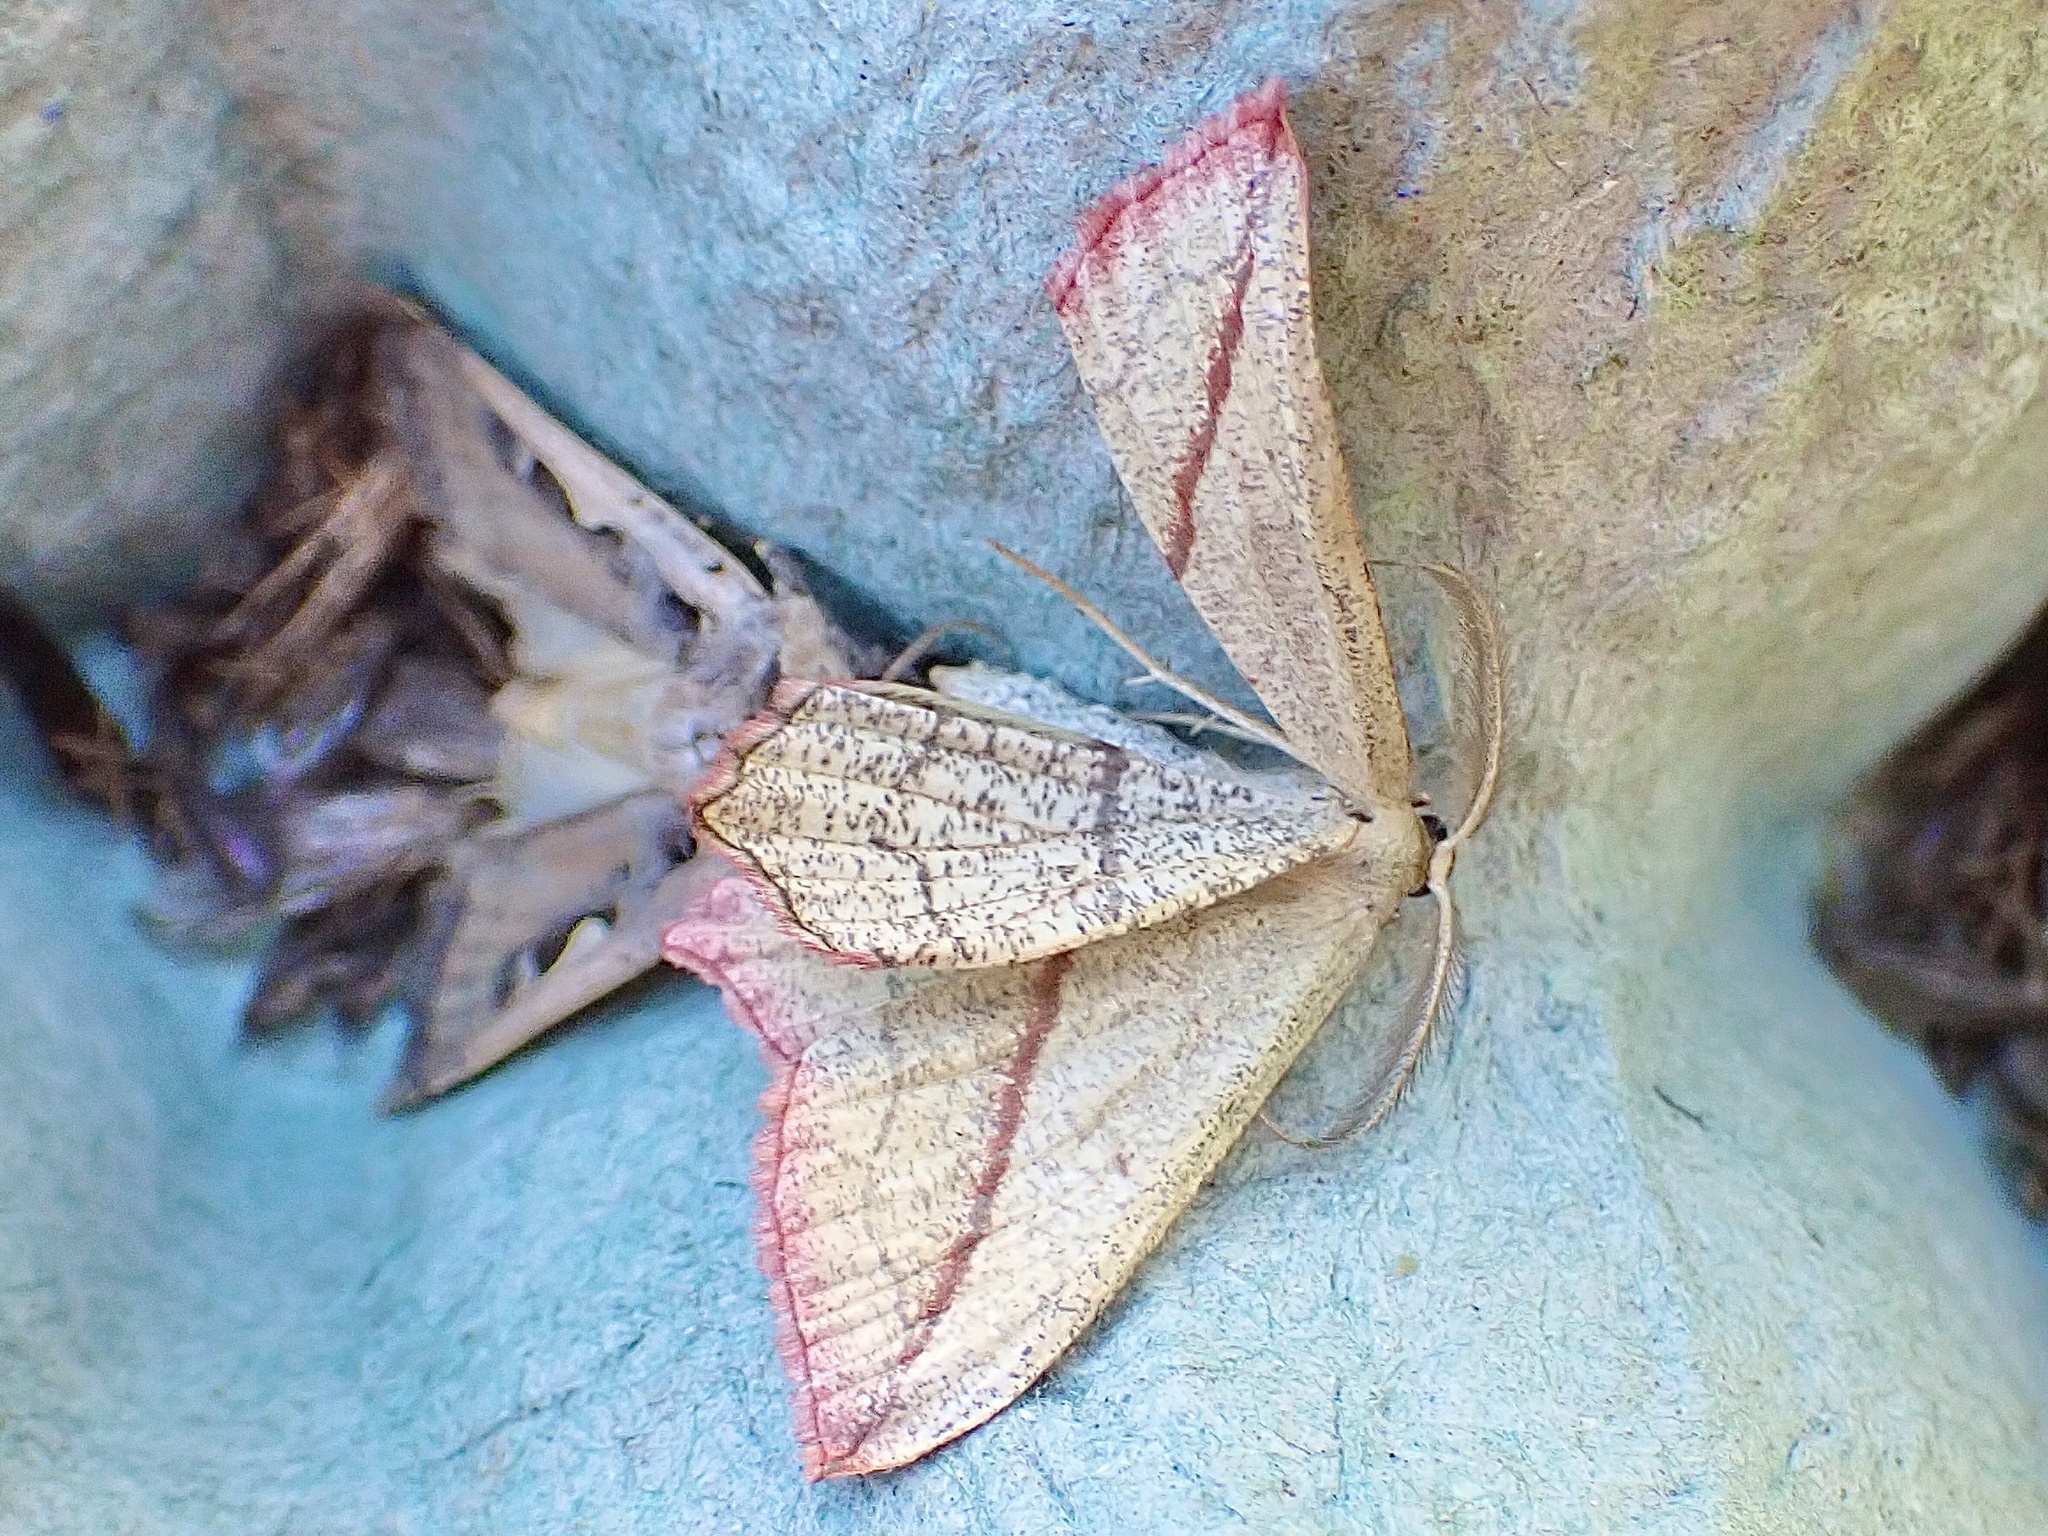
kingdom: Animalia
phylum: Arthropoda
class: Insecta
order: Lepidoptera
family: Geometridae
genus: Timandra
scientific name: Timandra comae
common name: Blood-vein
